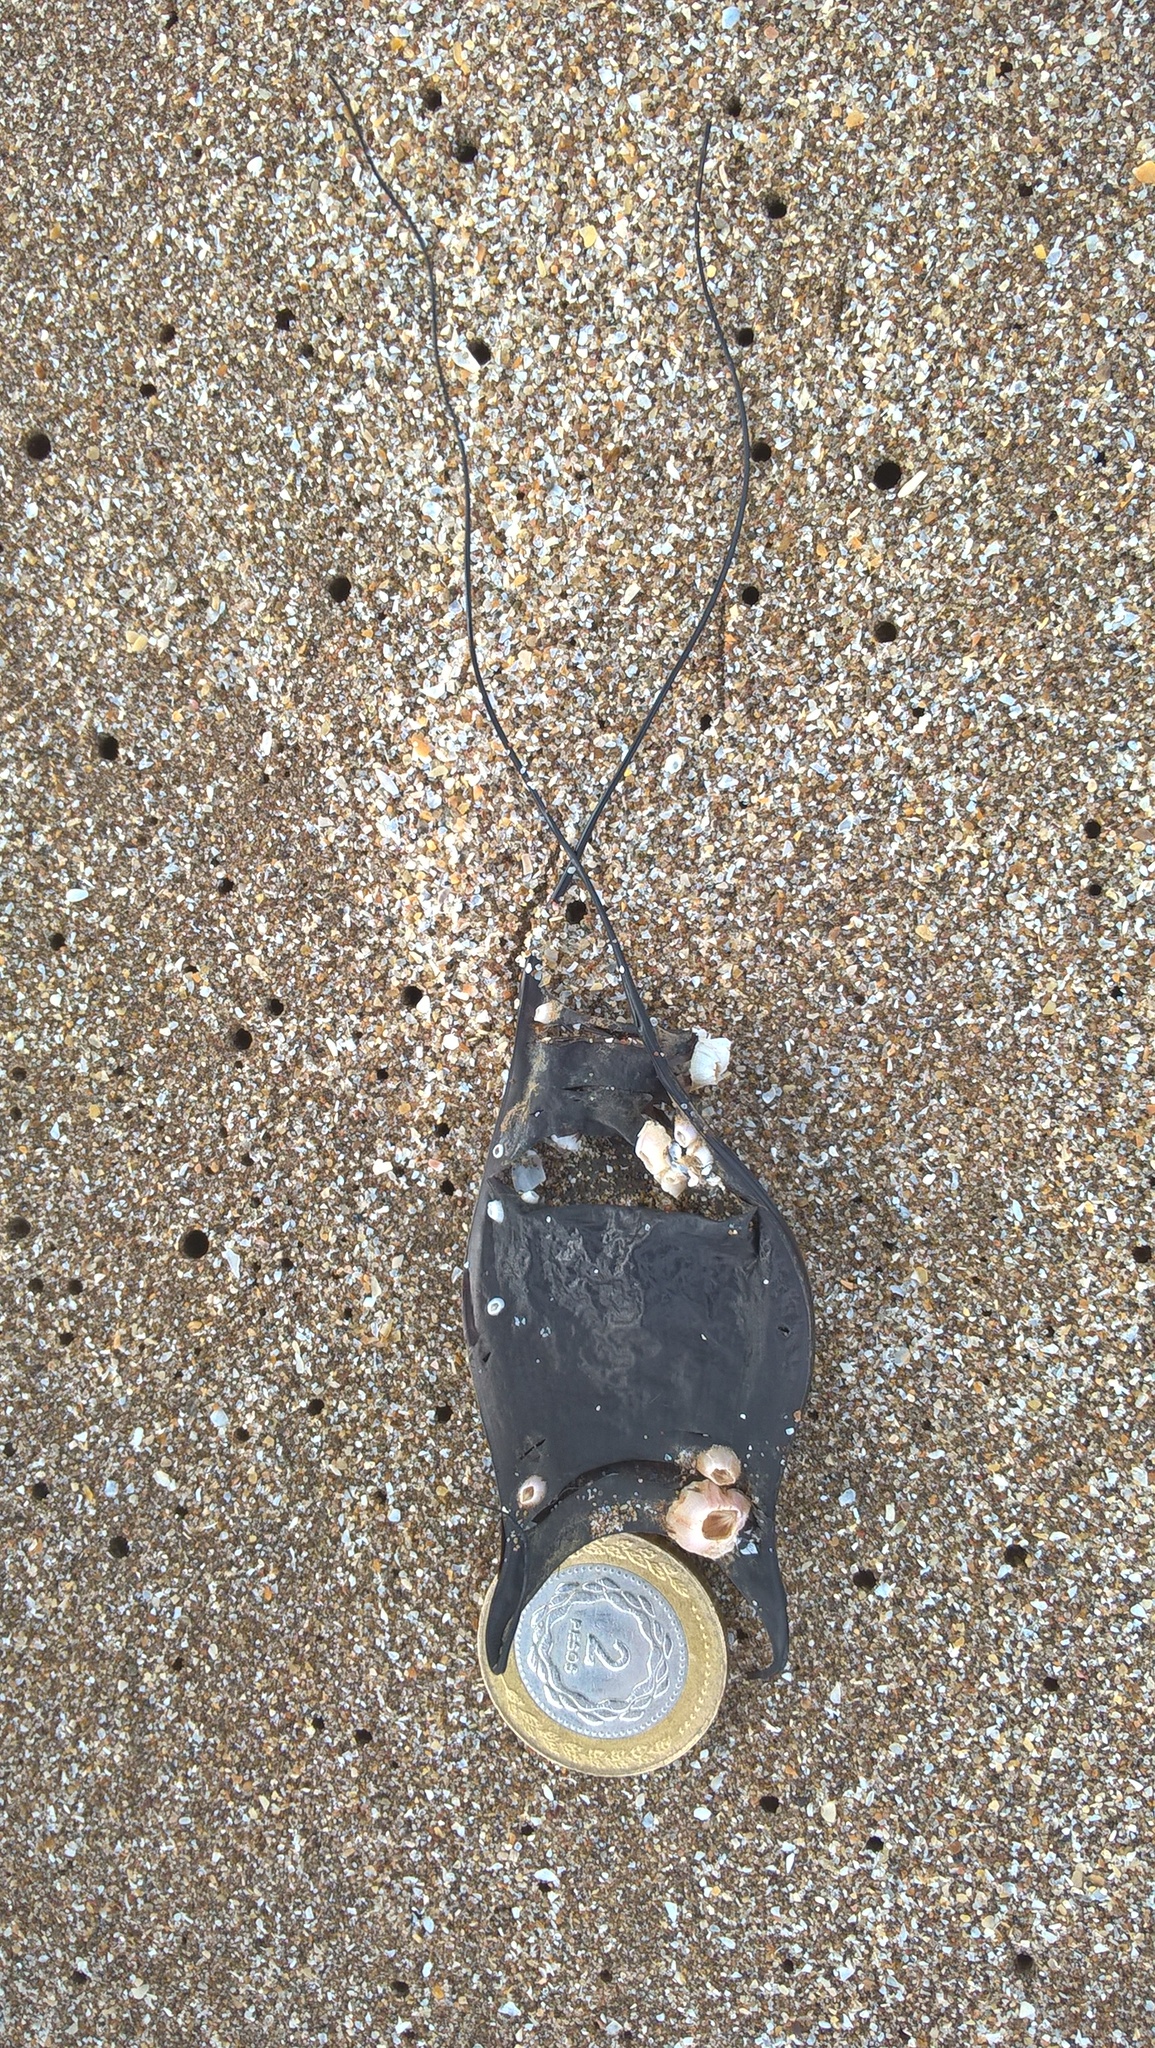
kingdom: Animalia
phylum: Chordata
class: Elasmobranchii
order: Rajiformes
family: Arhynchobatidae
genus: Sympterygia
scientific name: Sympterygia acuta
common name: Bignose fanskate
